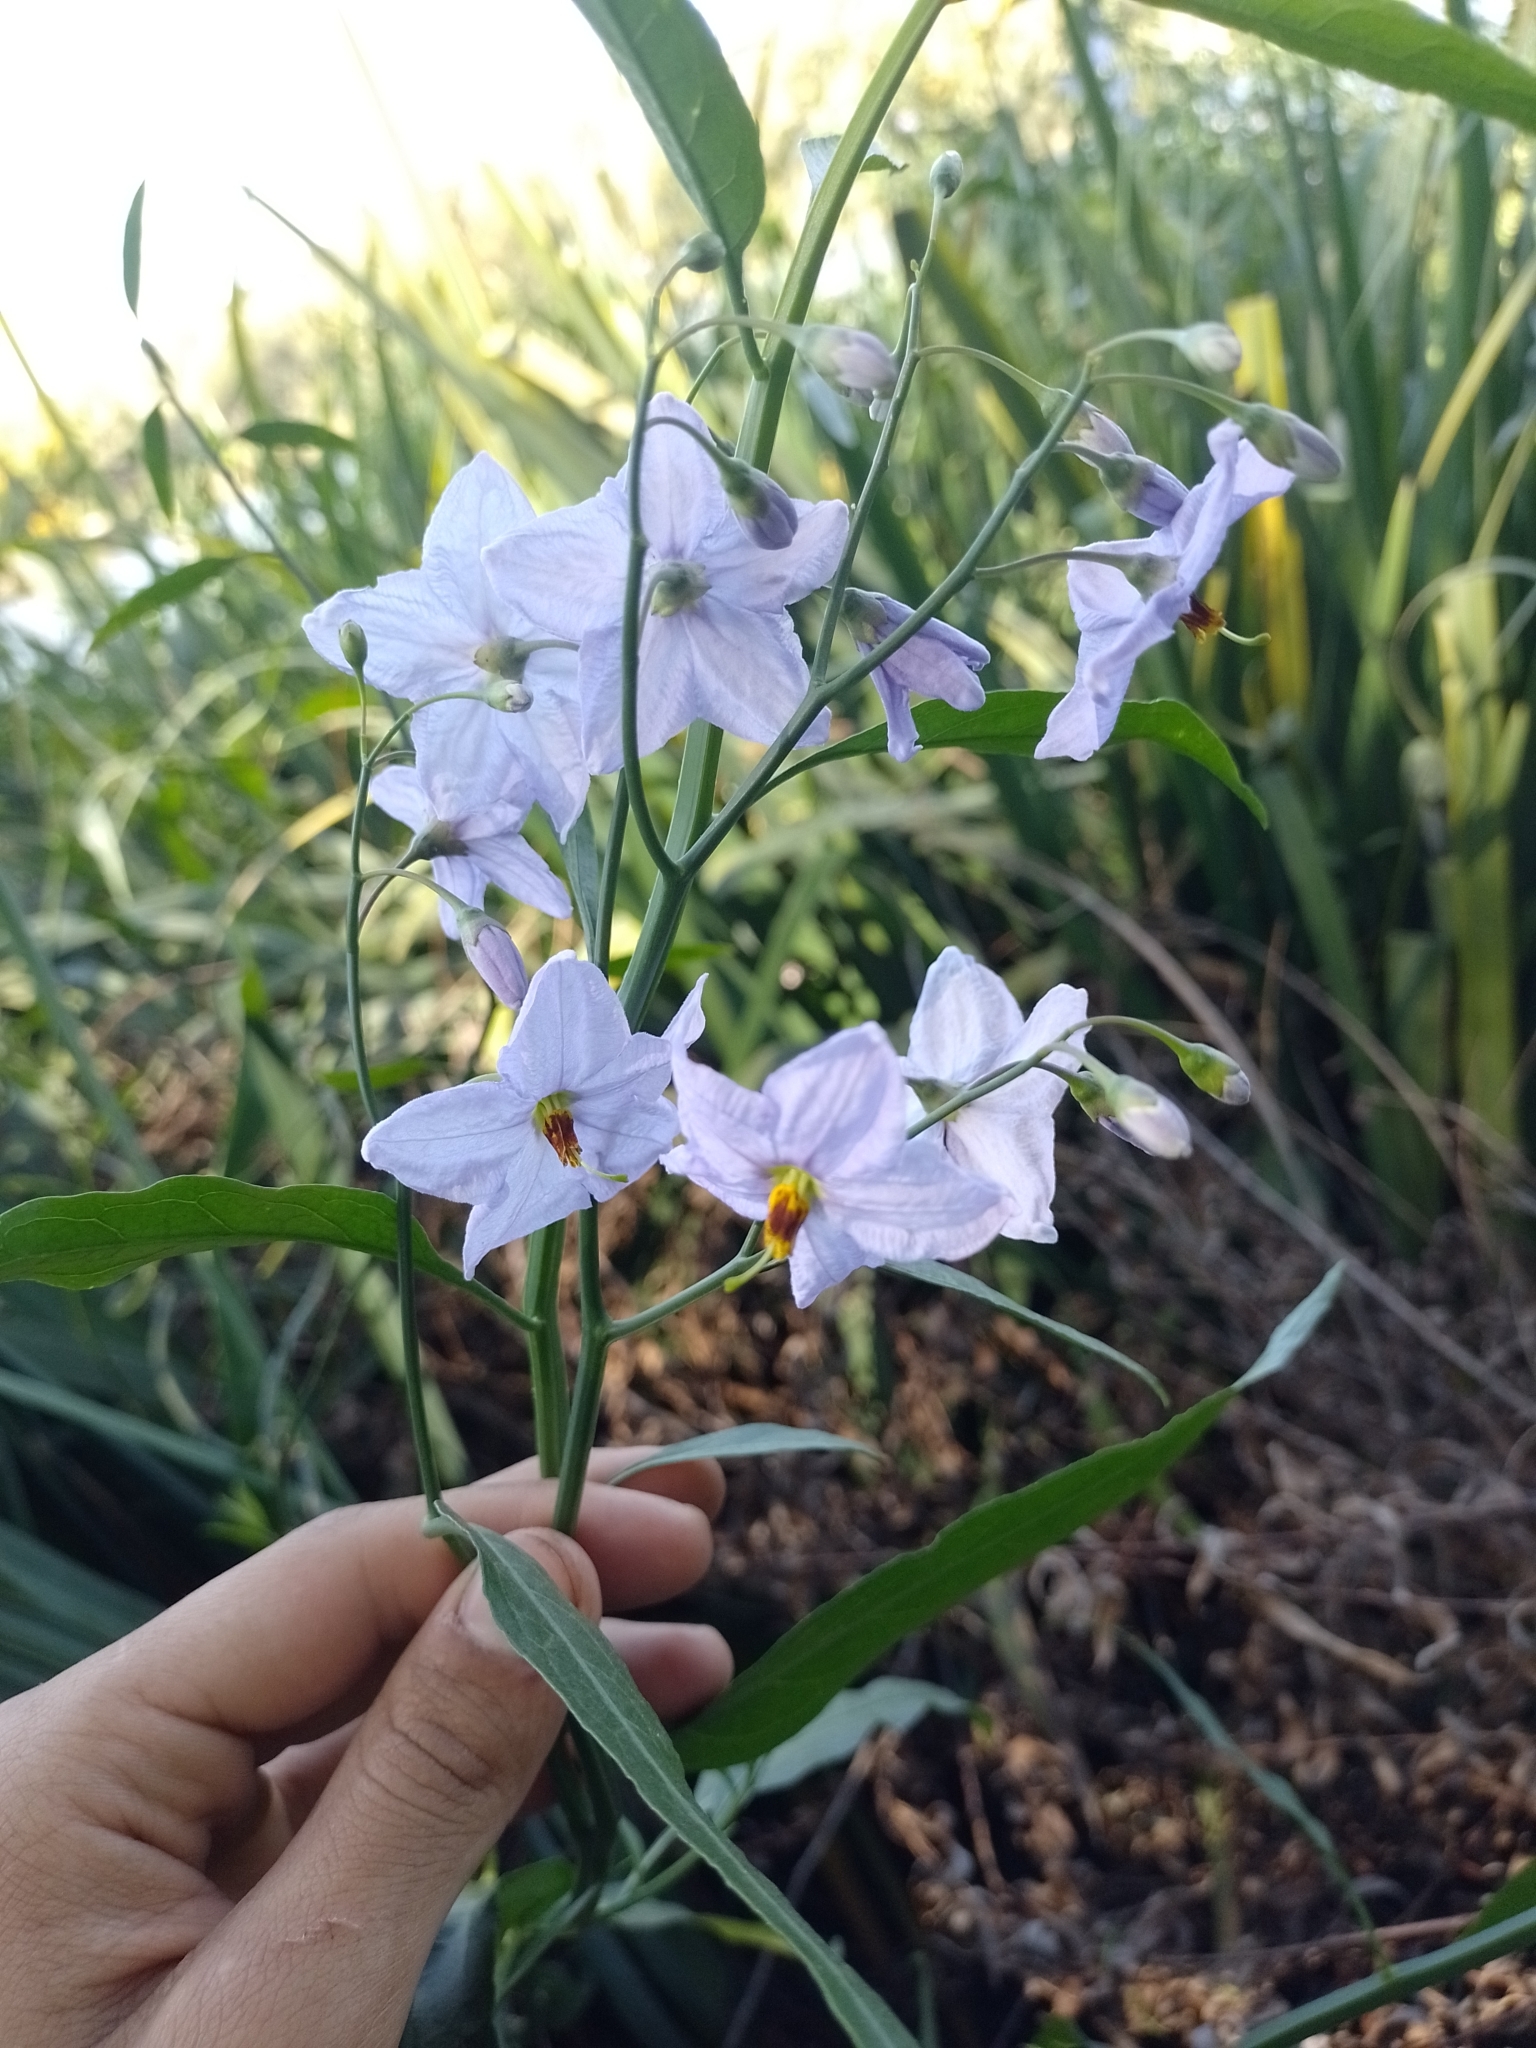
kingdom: Plantae
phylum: Tracheophyta
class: Magnoliopsida
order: Solanales
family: Solanaceae
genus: Solanum
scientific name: Solanum amygdalifolium
